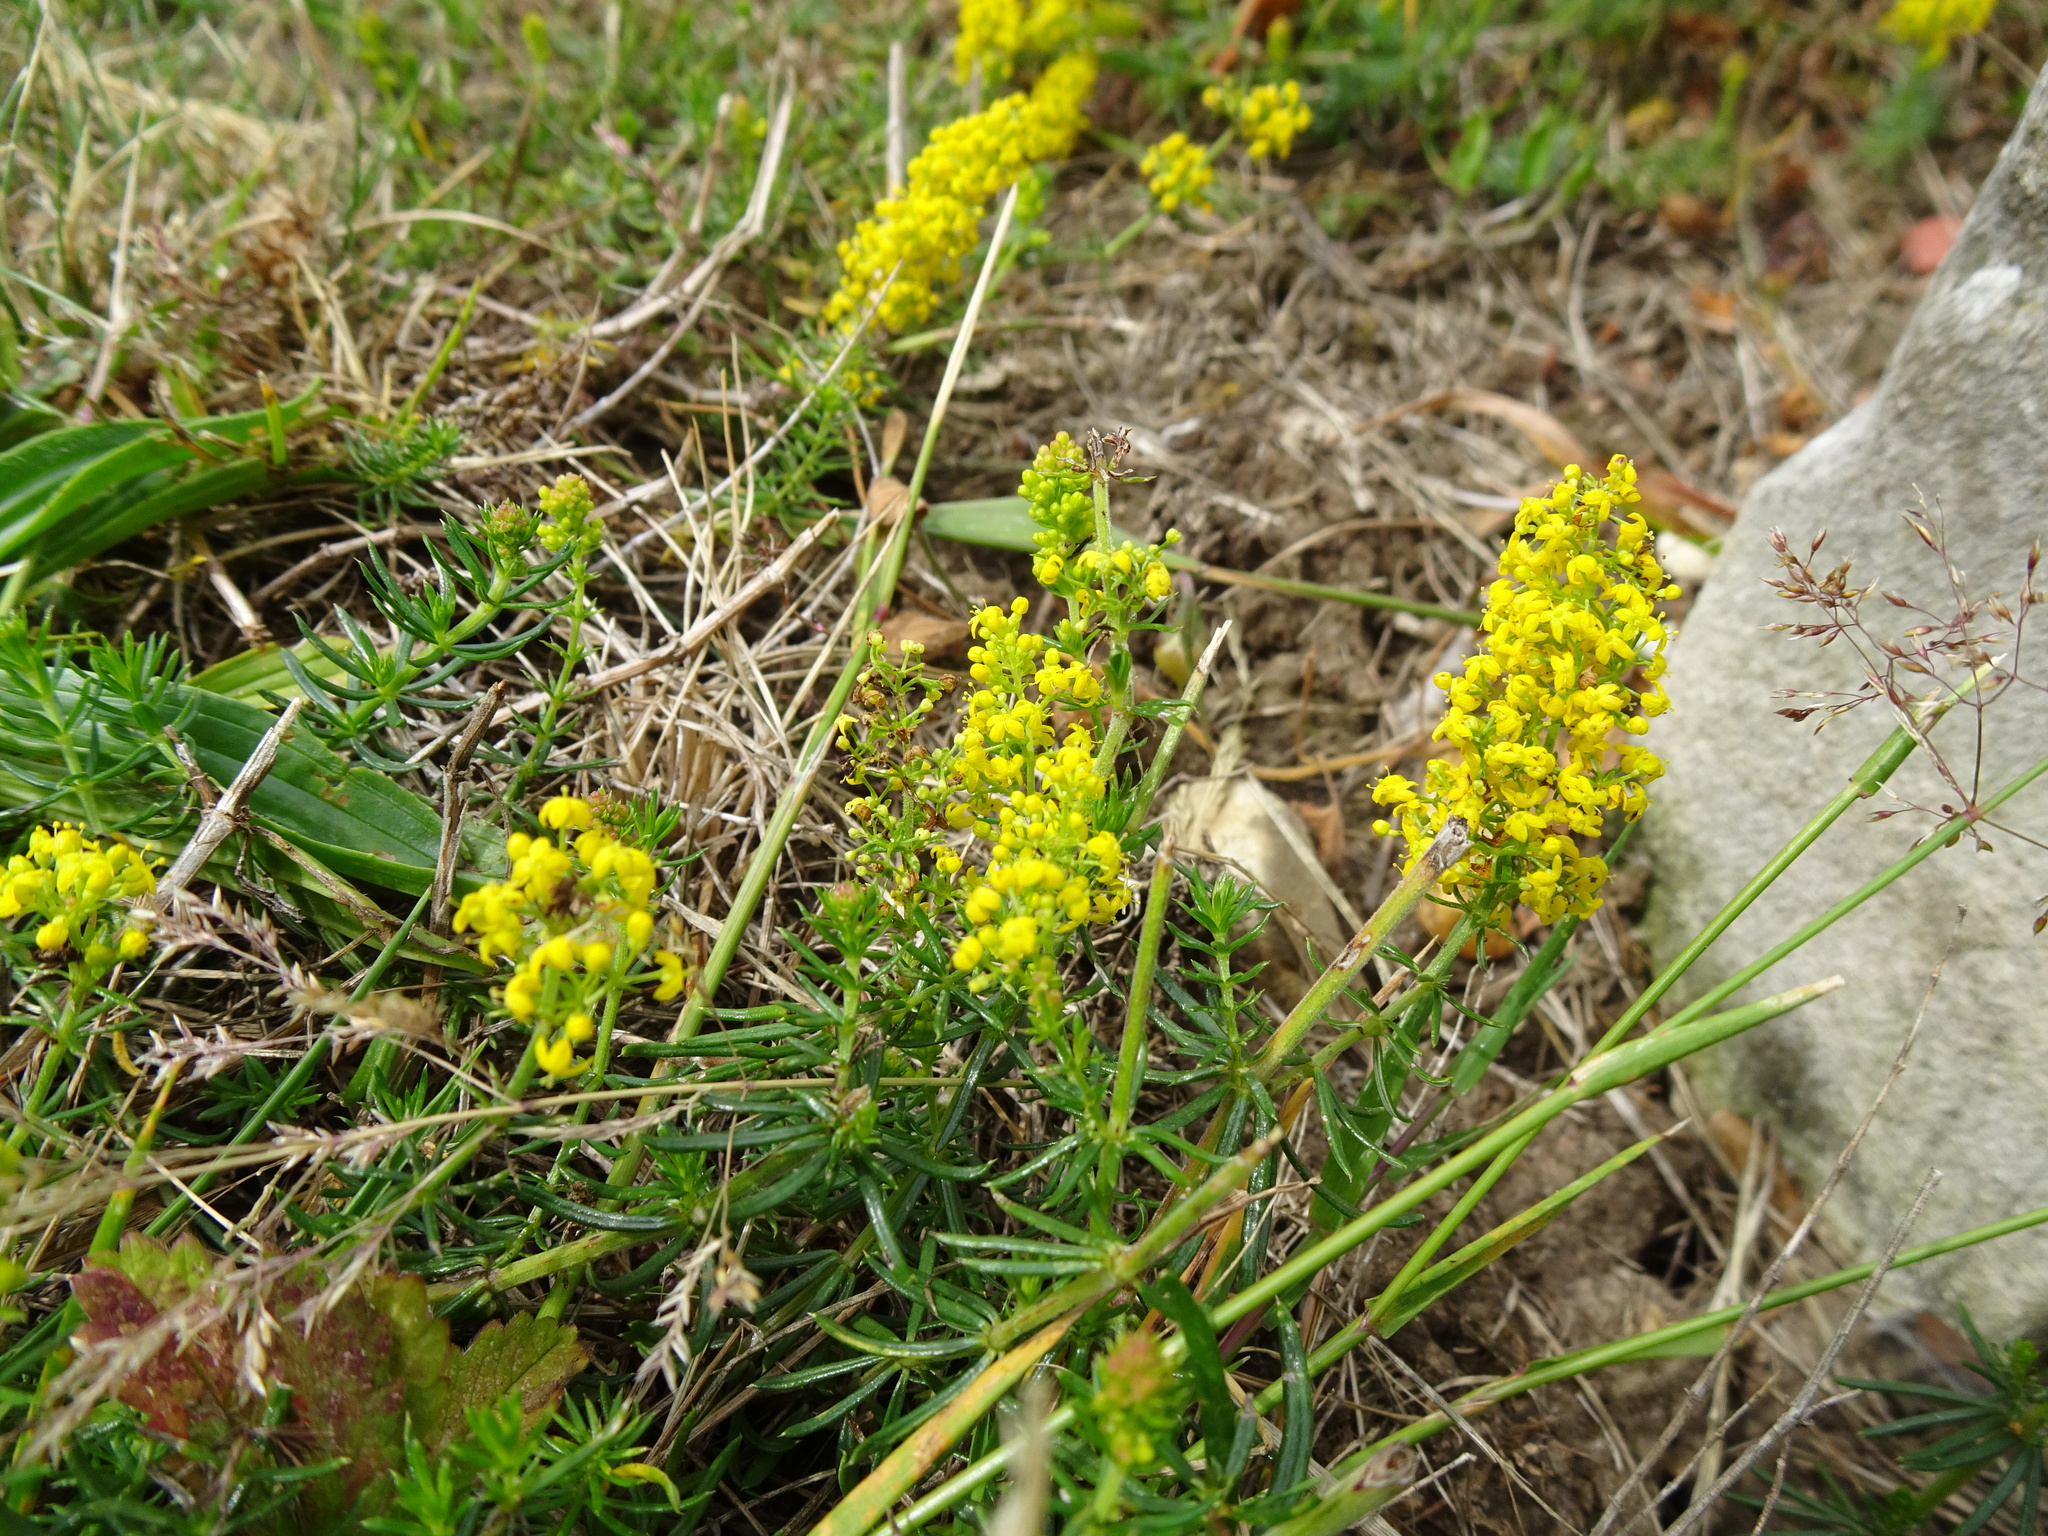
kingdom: Plantae
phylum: Tracheophyta
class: Magnoliopsida
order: Gentianales
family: Rubiaceae
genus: Galium
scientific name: Galium verum
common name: Lady's bedstraw
